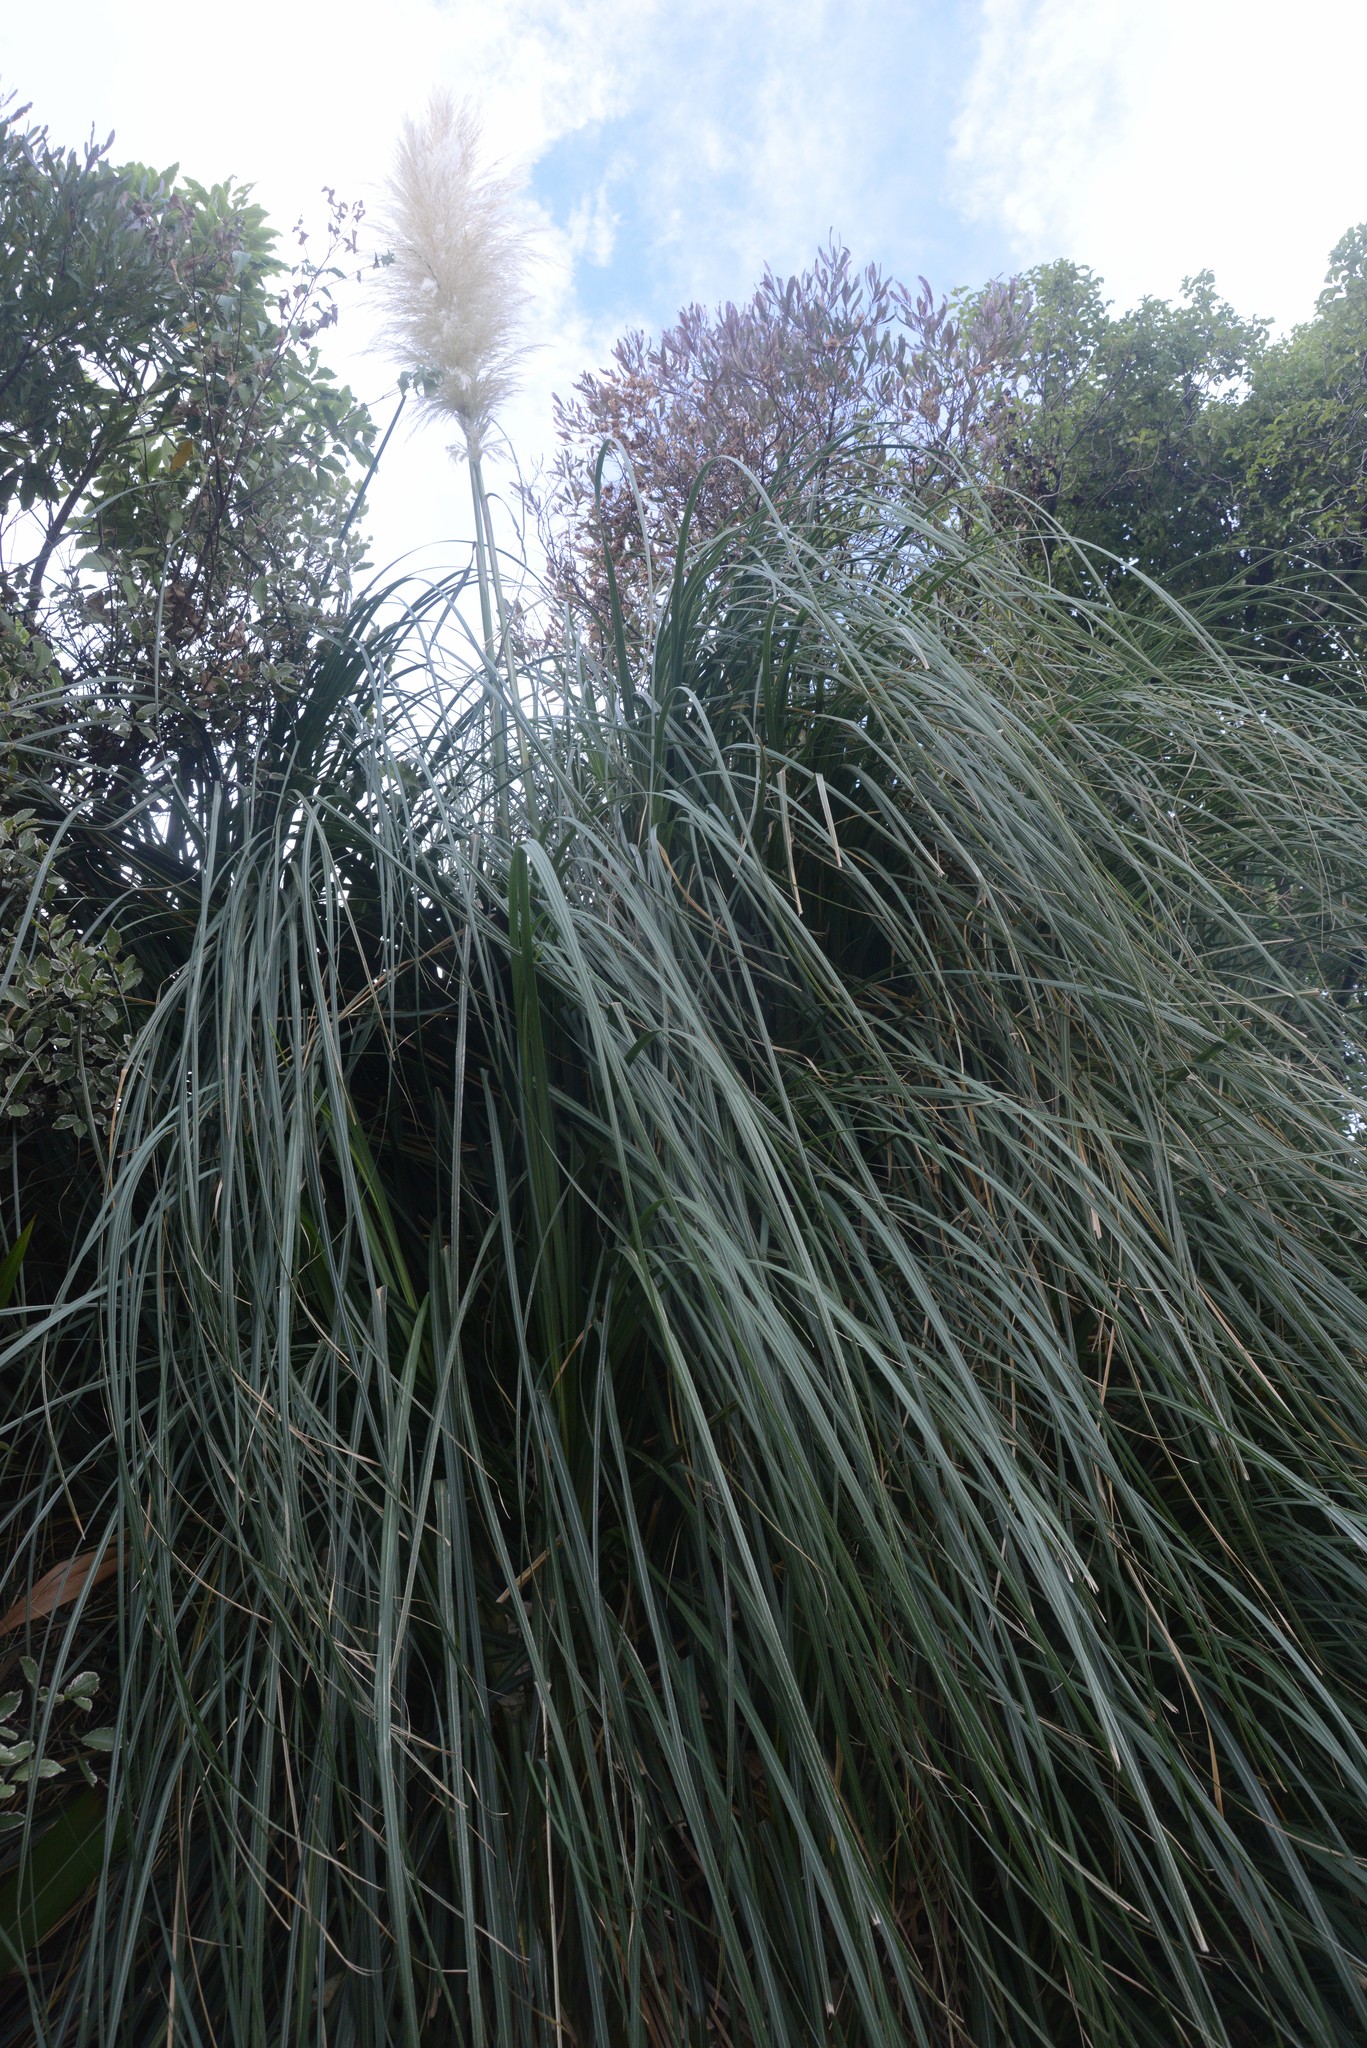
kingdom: Plantae
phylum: Tracheophyta
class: Liliopsida
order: Poales
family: Poaceae
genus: Cortaderia
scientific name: Cortaderia selloana
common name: Uruguayan pampas grass
